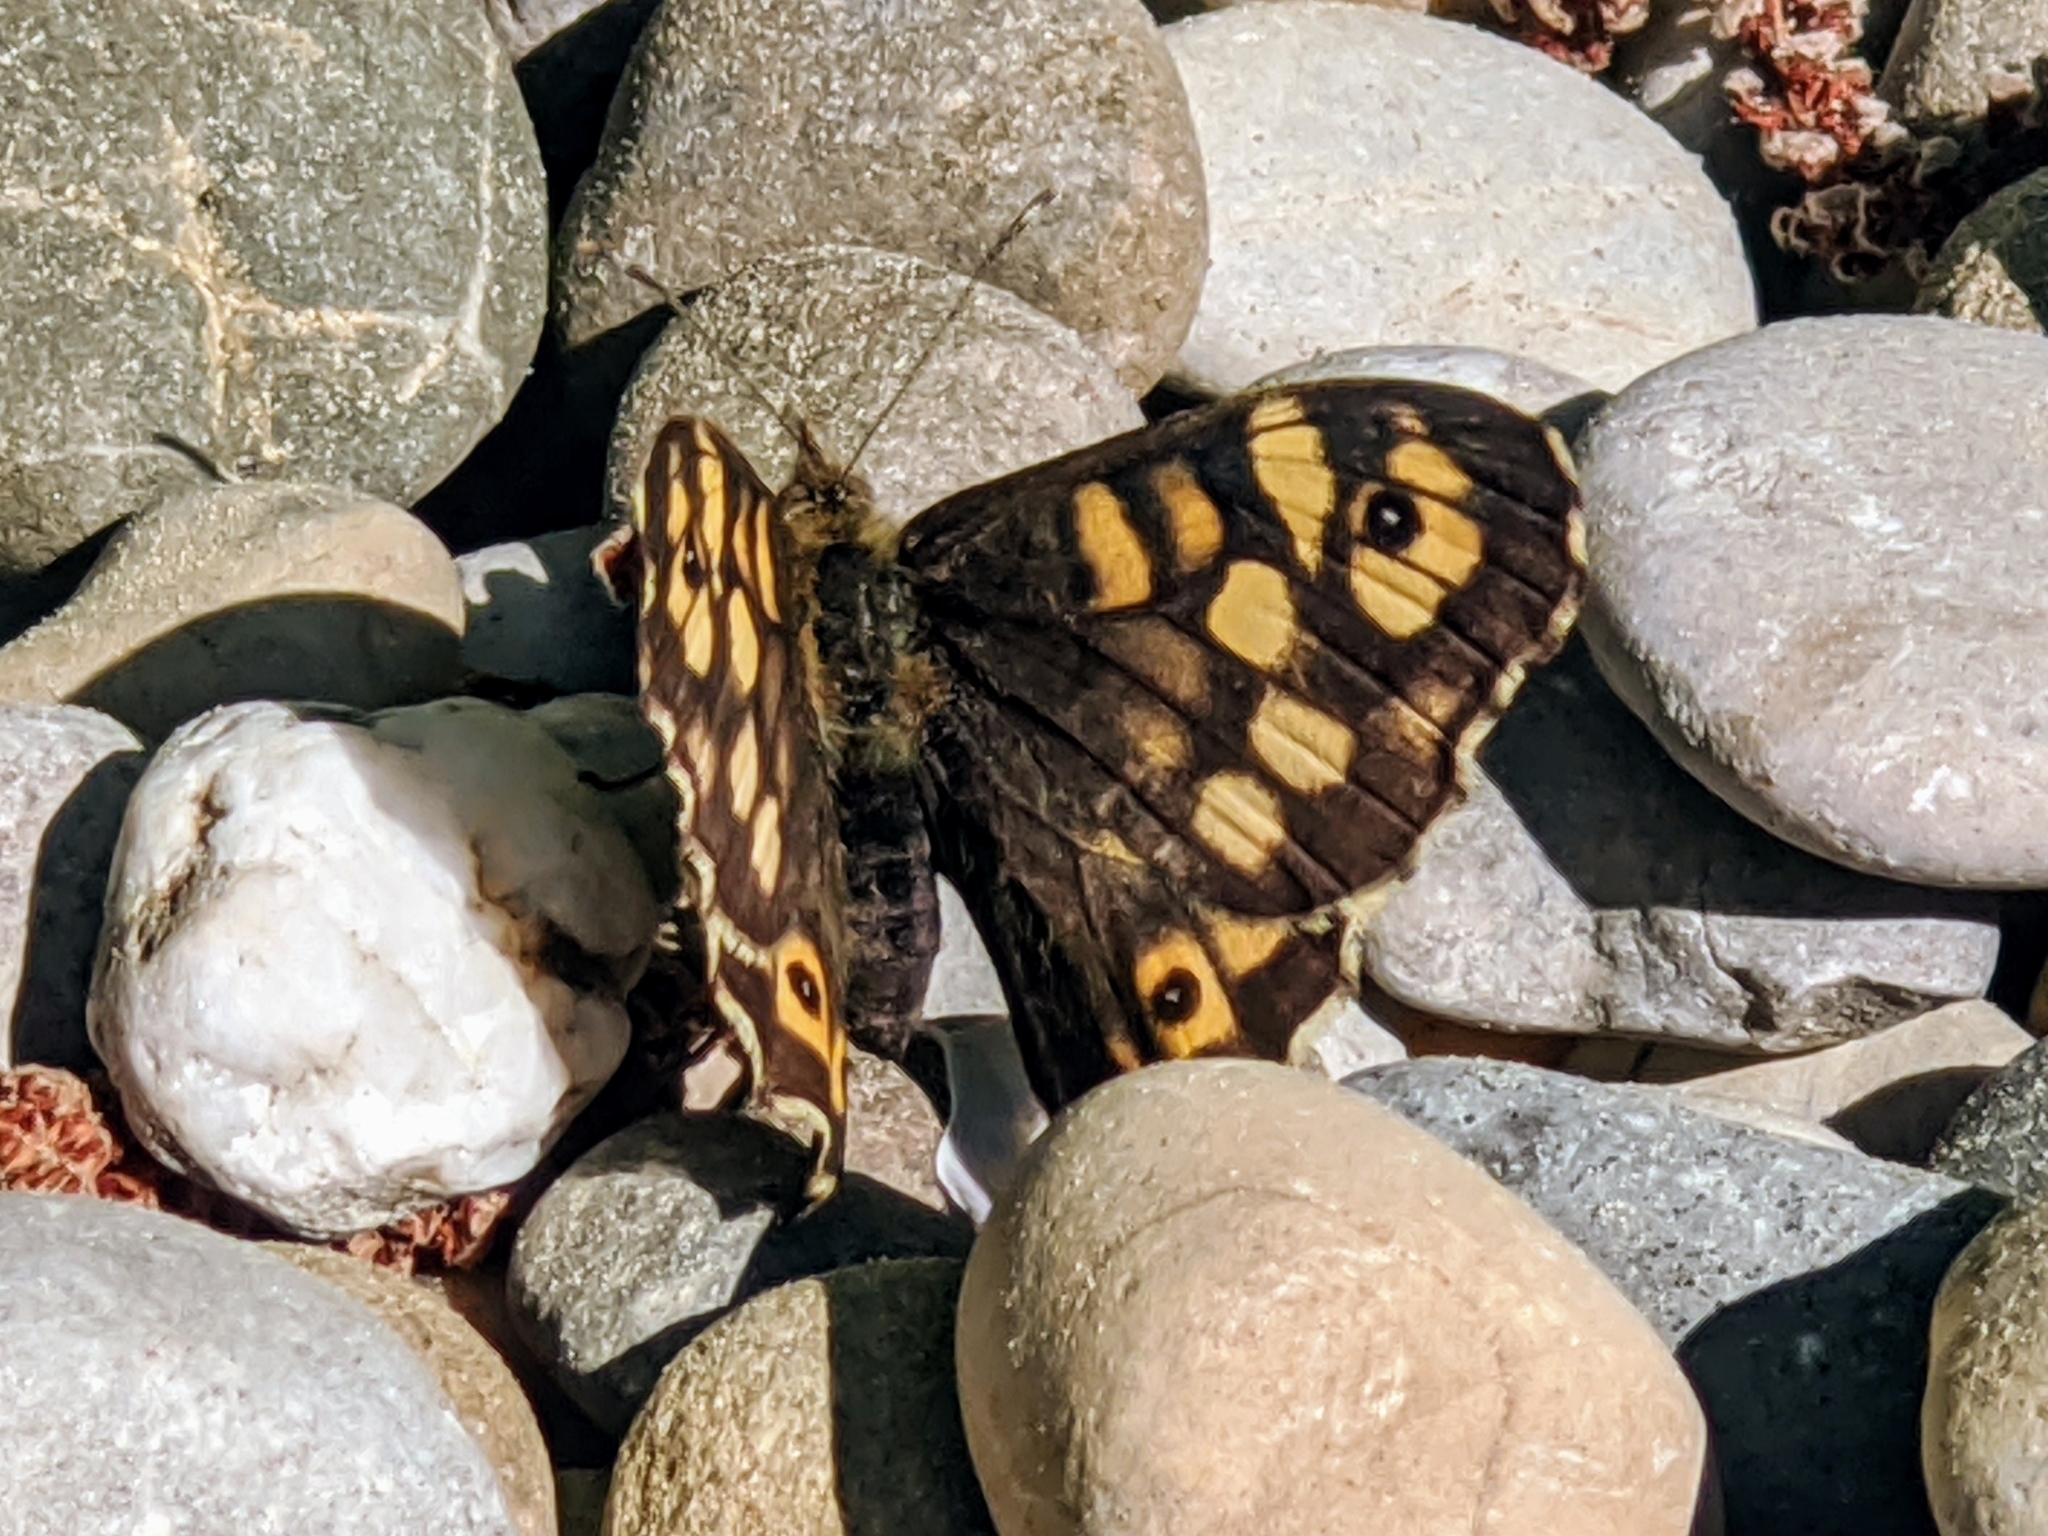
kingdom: Animalia
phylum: Arthropoda
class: Insecta
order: Lepidoptera
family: Nymphalidae
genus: Pararge
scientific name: Pararge aegeria
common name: Speckled wood
